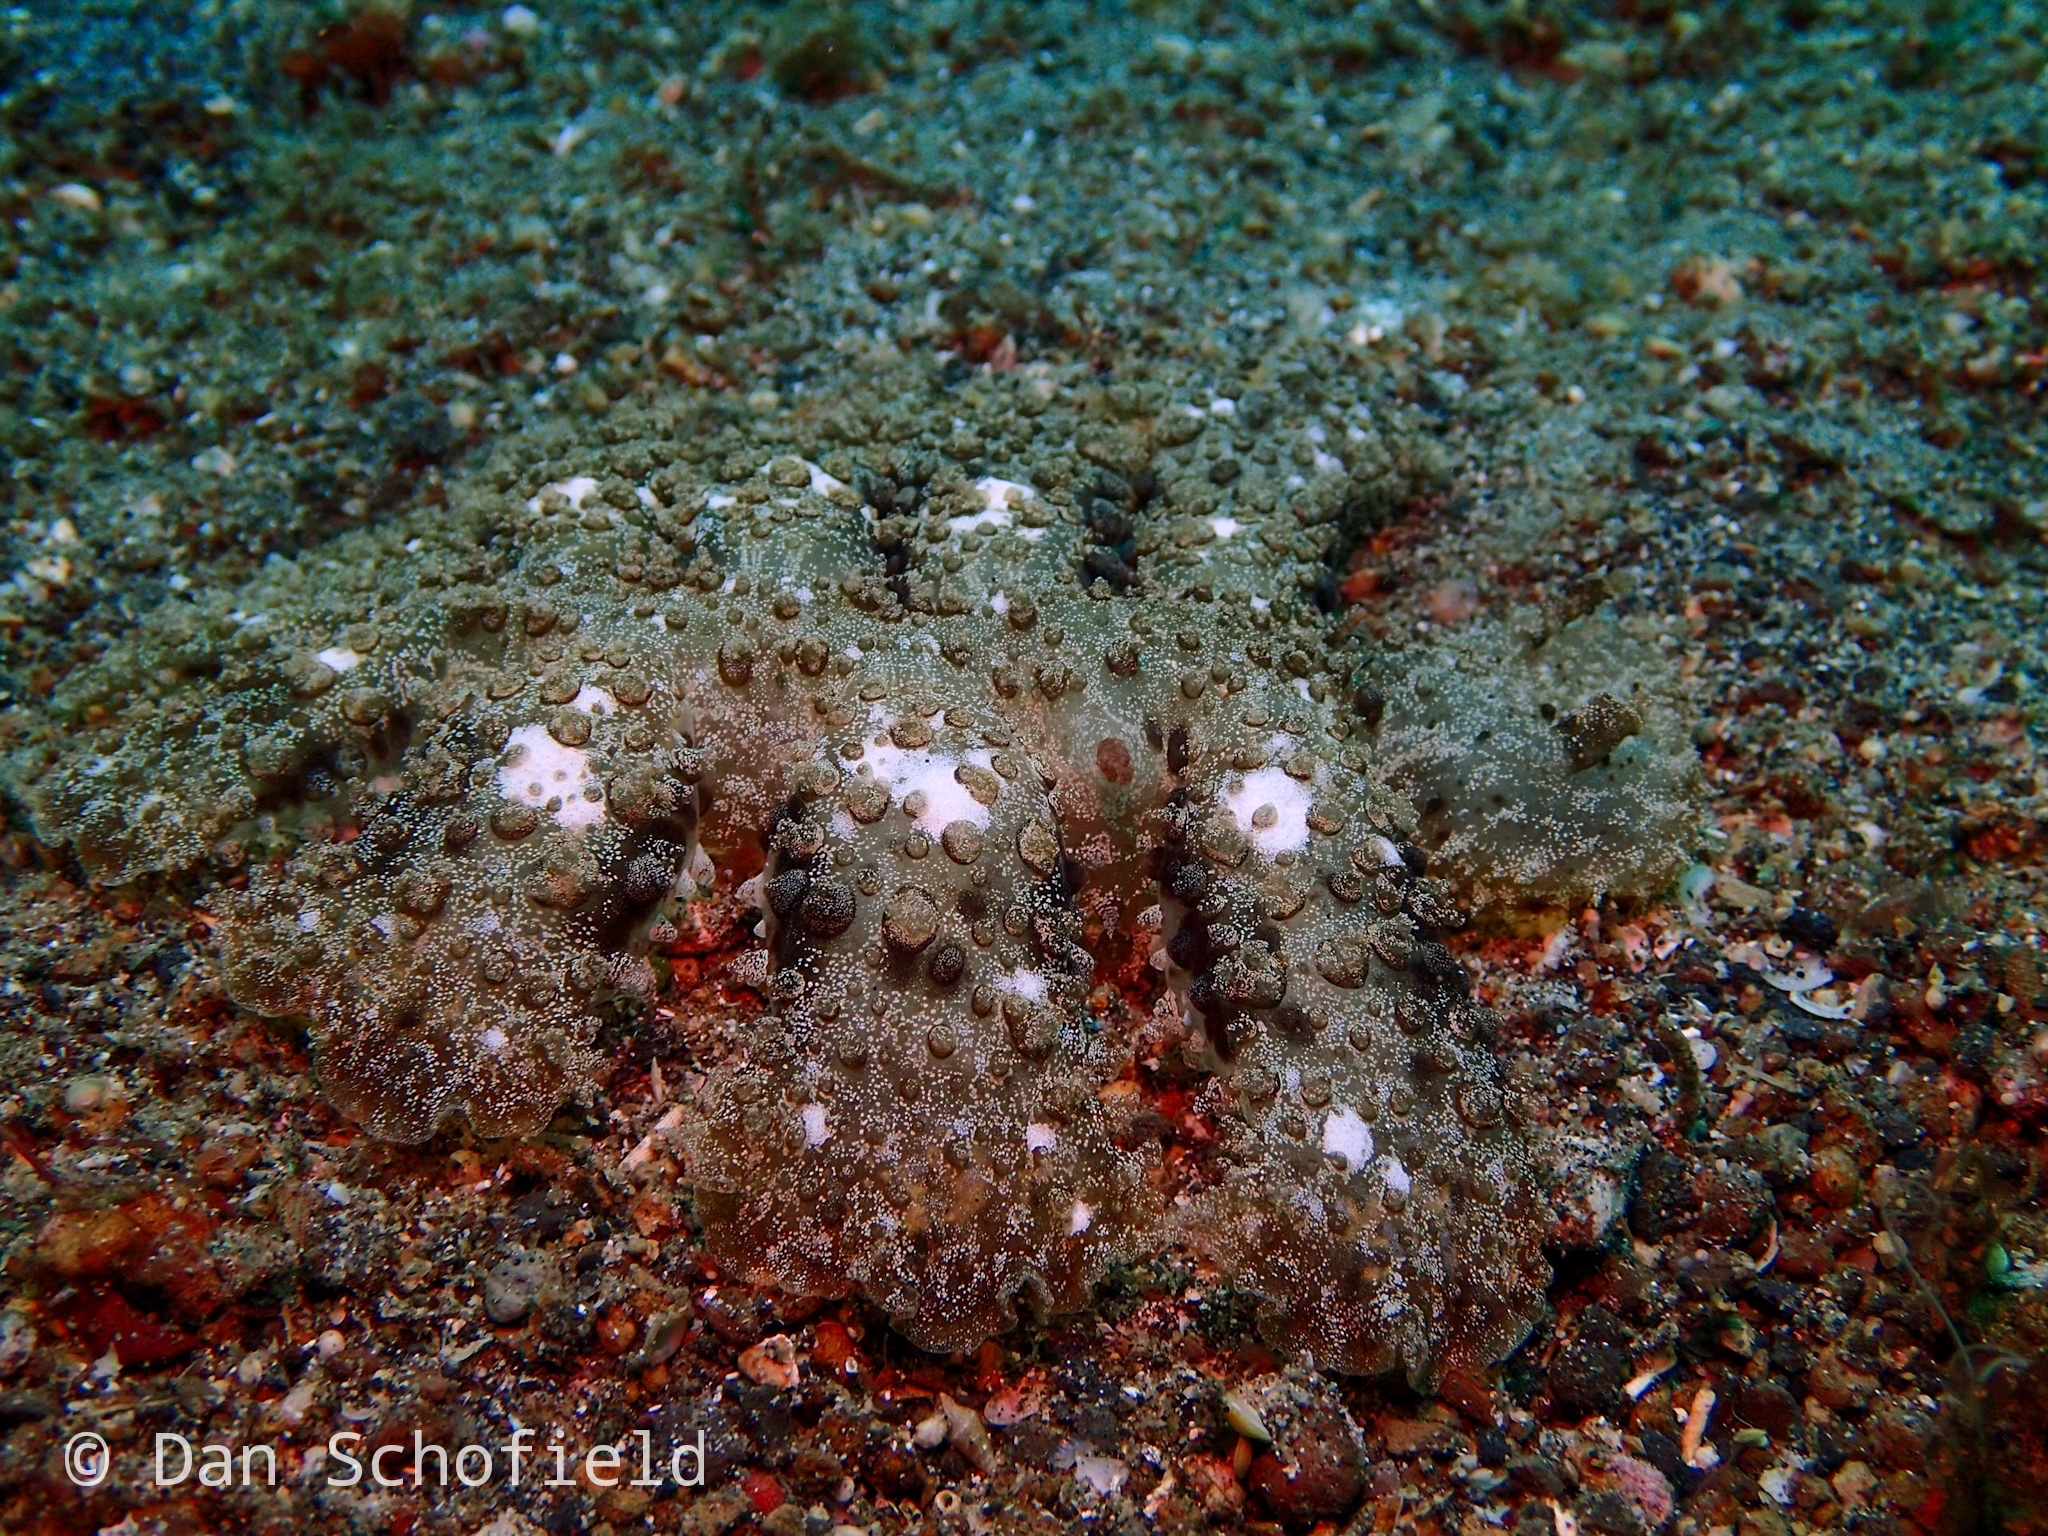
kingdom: Animalia
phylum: Mollusca
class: Gastropoda
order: Nudibranchia
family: Tethydidae
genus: Melibe
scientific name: Melibe viridis
